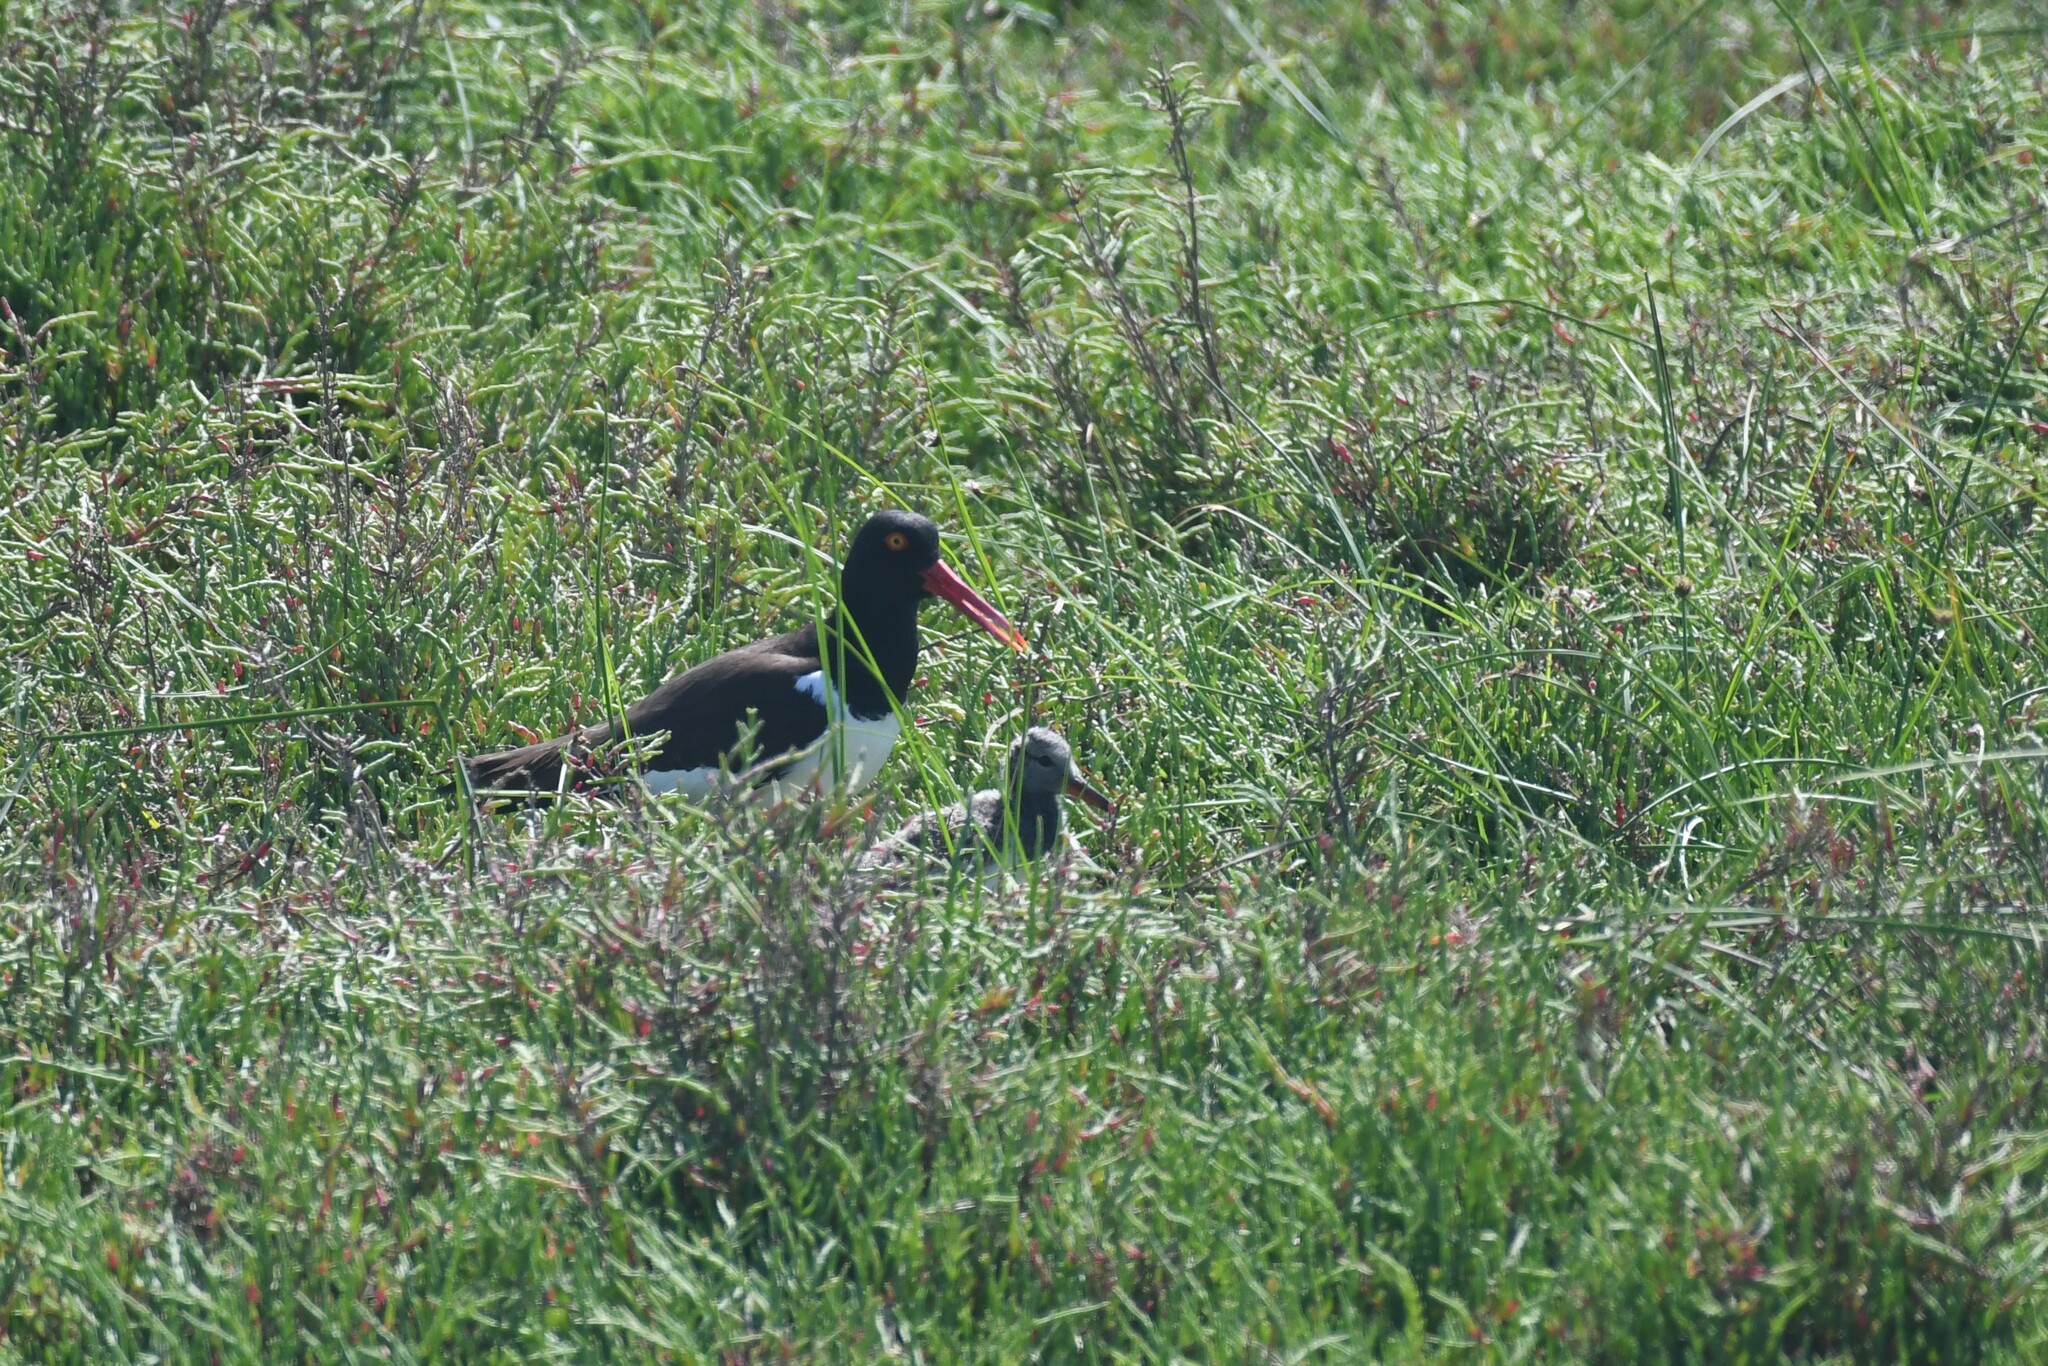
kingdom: Animalia
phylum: Chordata
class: Aves
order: Charadriiformes
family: Haematopodidae
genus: Haematopus
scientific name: Haematopus palliatus
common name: American oystercatcher
